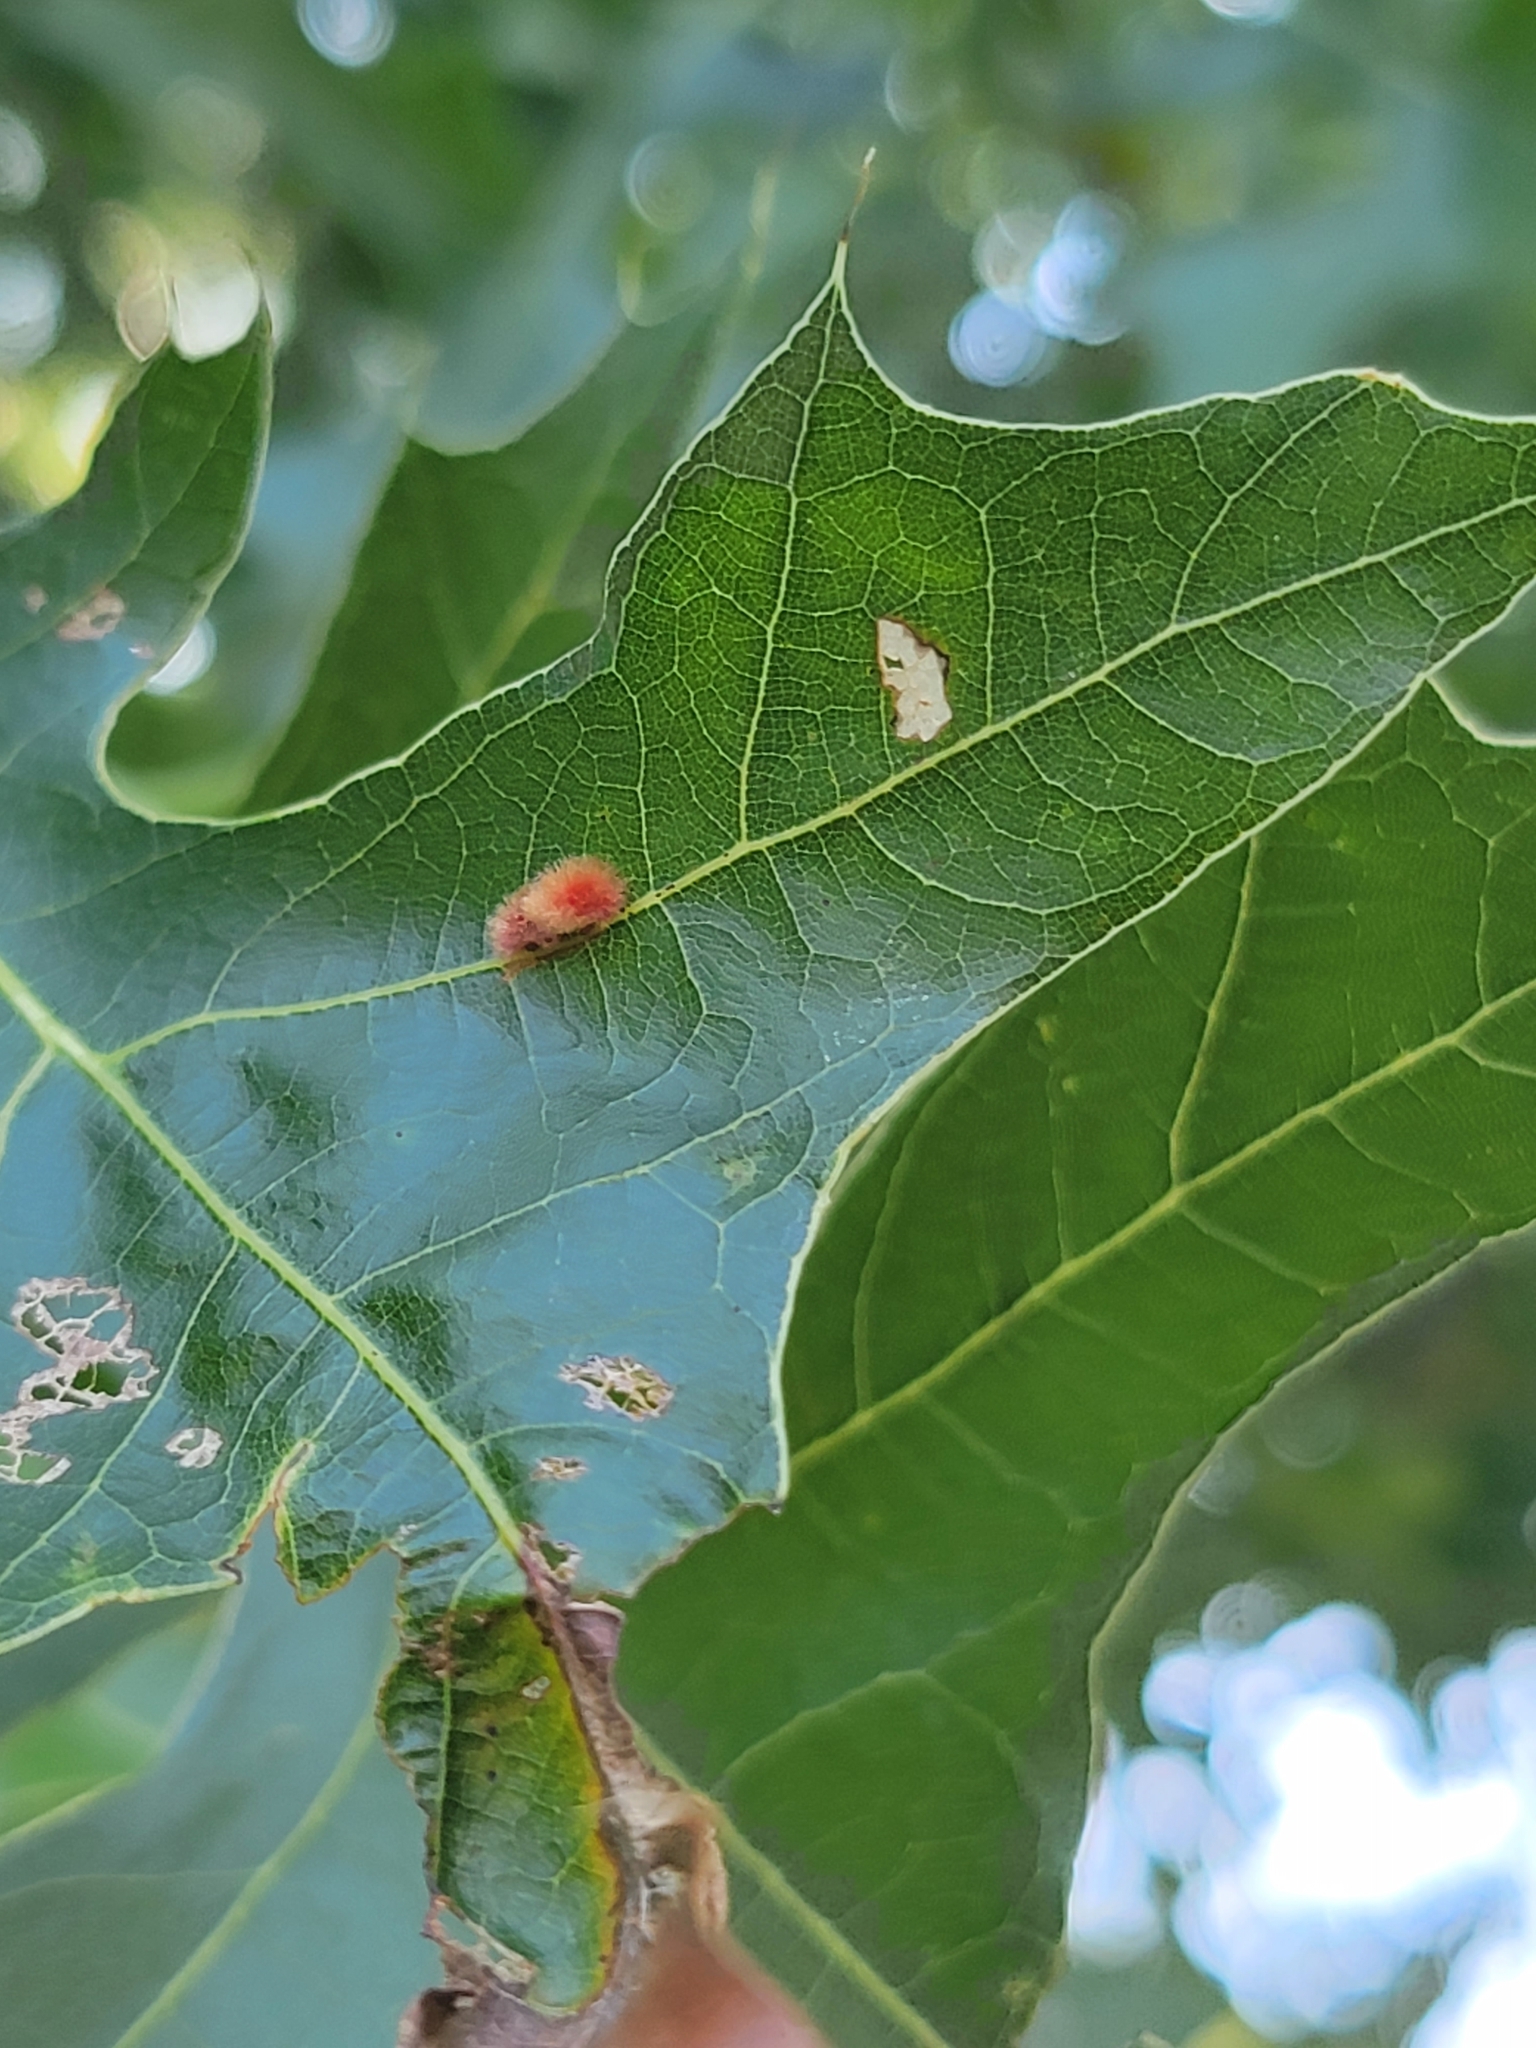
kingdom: Animalia
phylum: Arthropoda
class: Insecta
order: Hymenoptera
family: Cynipidae
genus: Callirhytis
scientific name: Callirhytis
